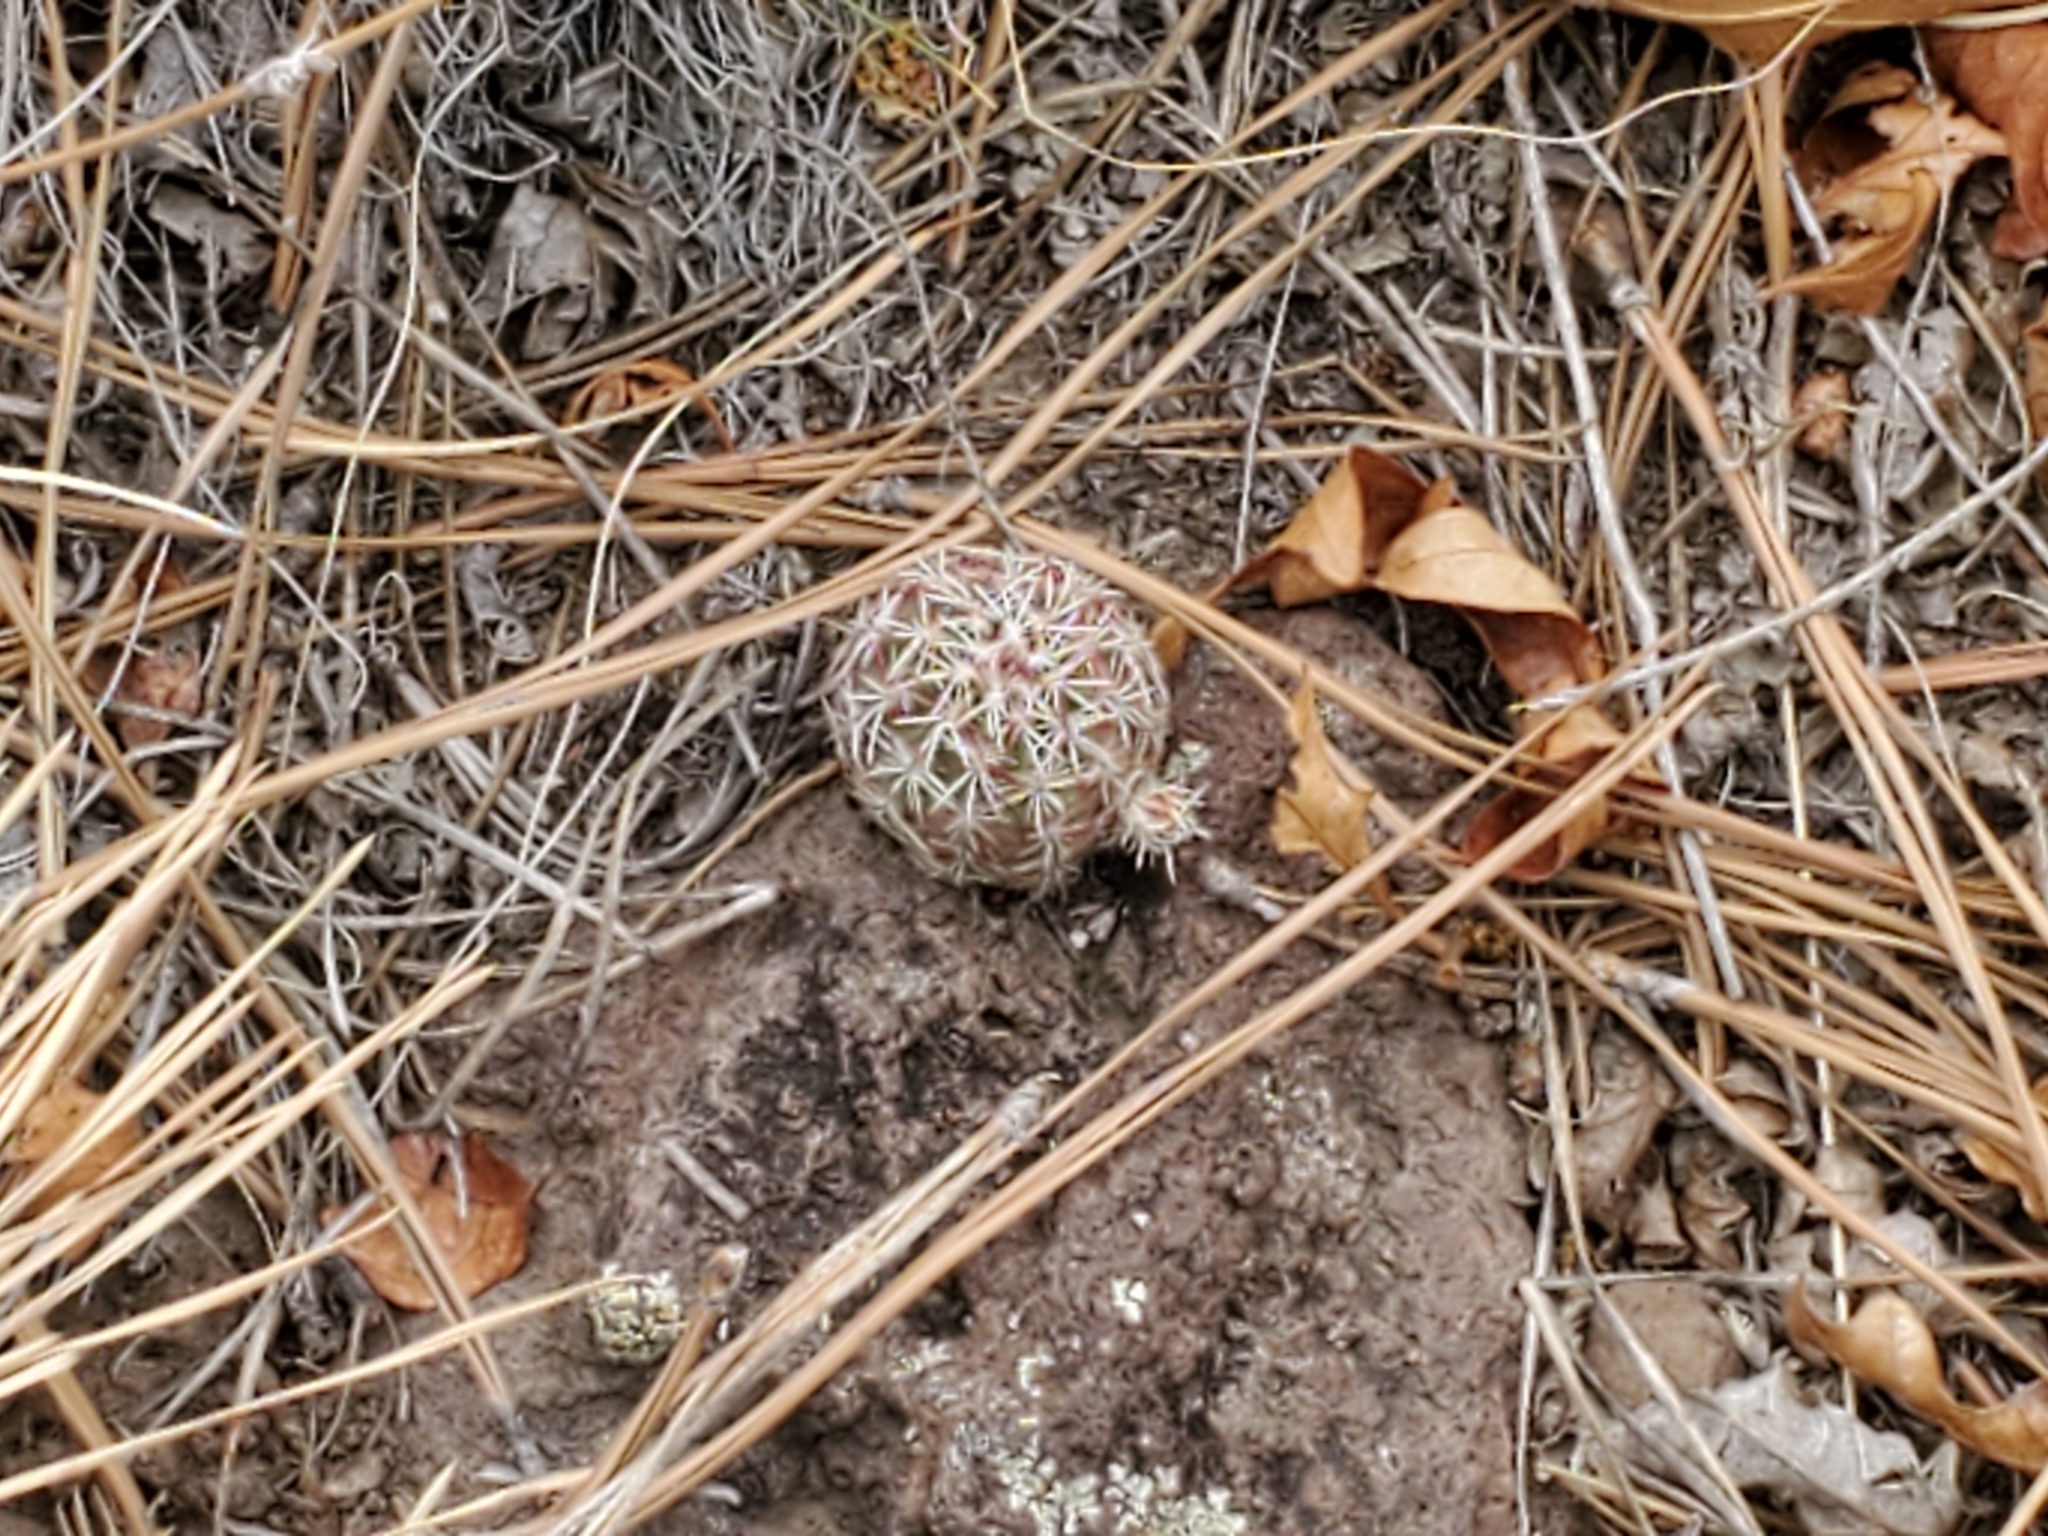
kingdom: Plantae
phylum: Tracheophyta
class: Magnoliopsida
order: Caryophyllales
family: Cactaceae
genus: Echinocereus
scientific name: Echinocereus viridiflorus
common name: Nylon hedgehog cactus
